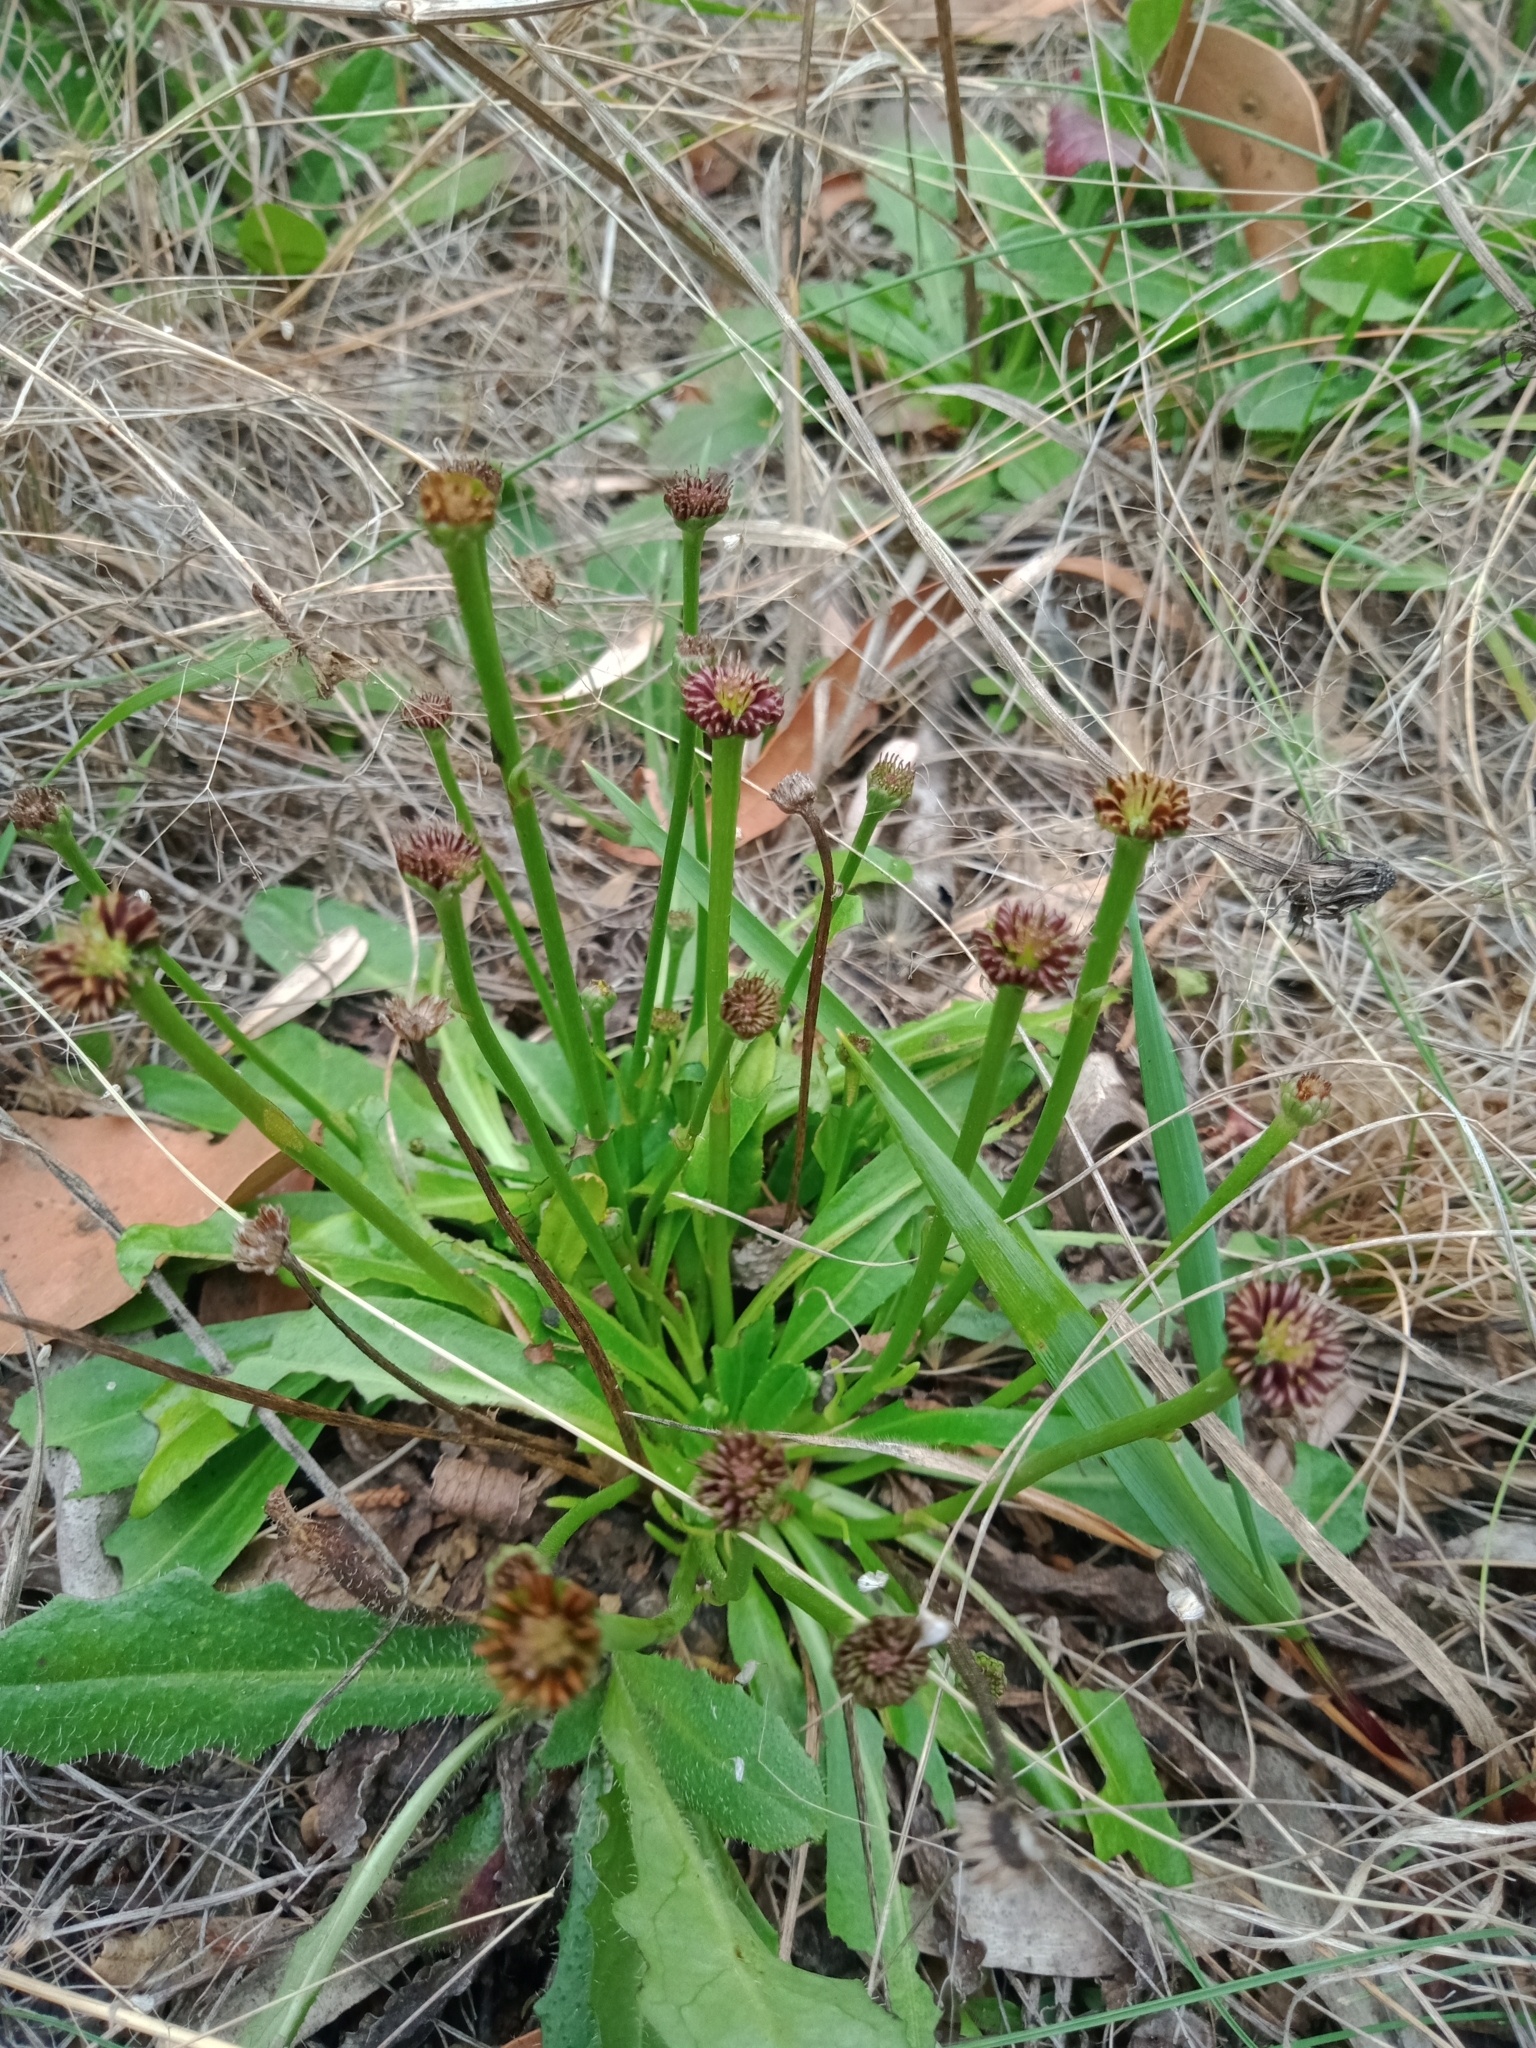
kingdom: Plantae
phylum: Tracheophyta
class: Magnoliopsida
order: Asterales
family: Asteraceae
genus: Solenogyne
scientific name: Solenogyne dominii
